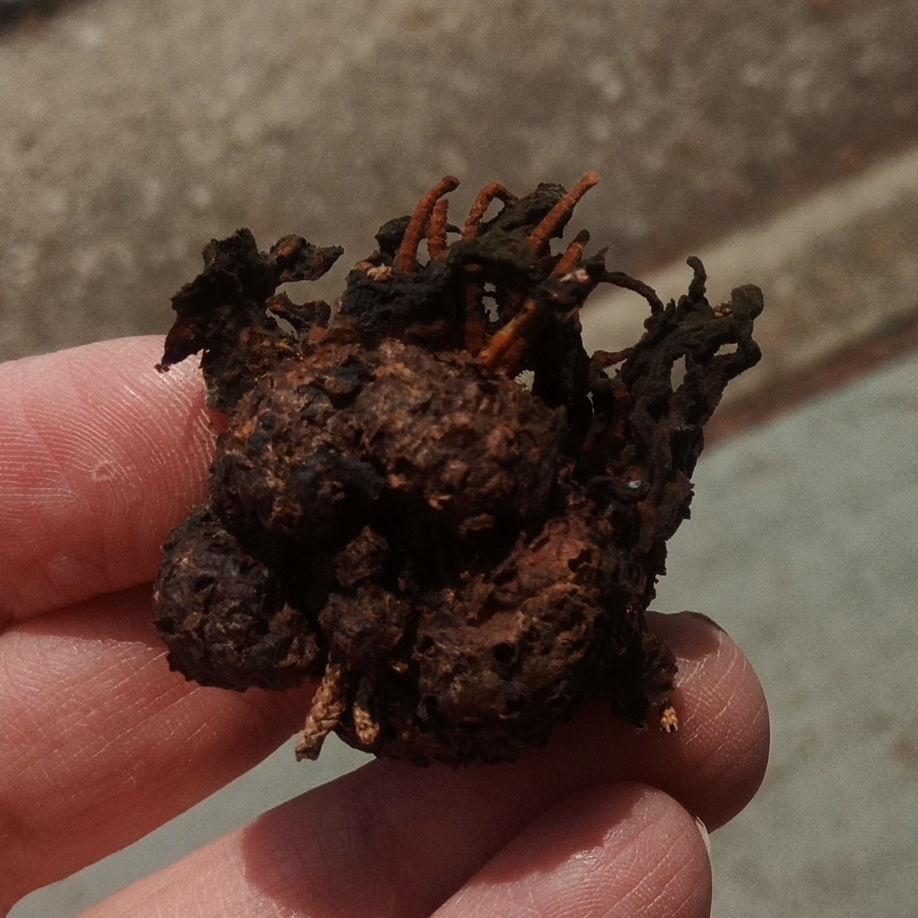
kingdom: Fungi
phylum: Basidiomycota
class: Pucciniomycetes
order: Pucciniales
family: Gymnosporangiaceae
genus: Gymnosporangium
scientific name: Gymnosporangium juniperi-virginianae
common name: Juniper-apple rust
